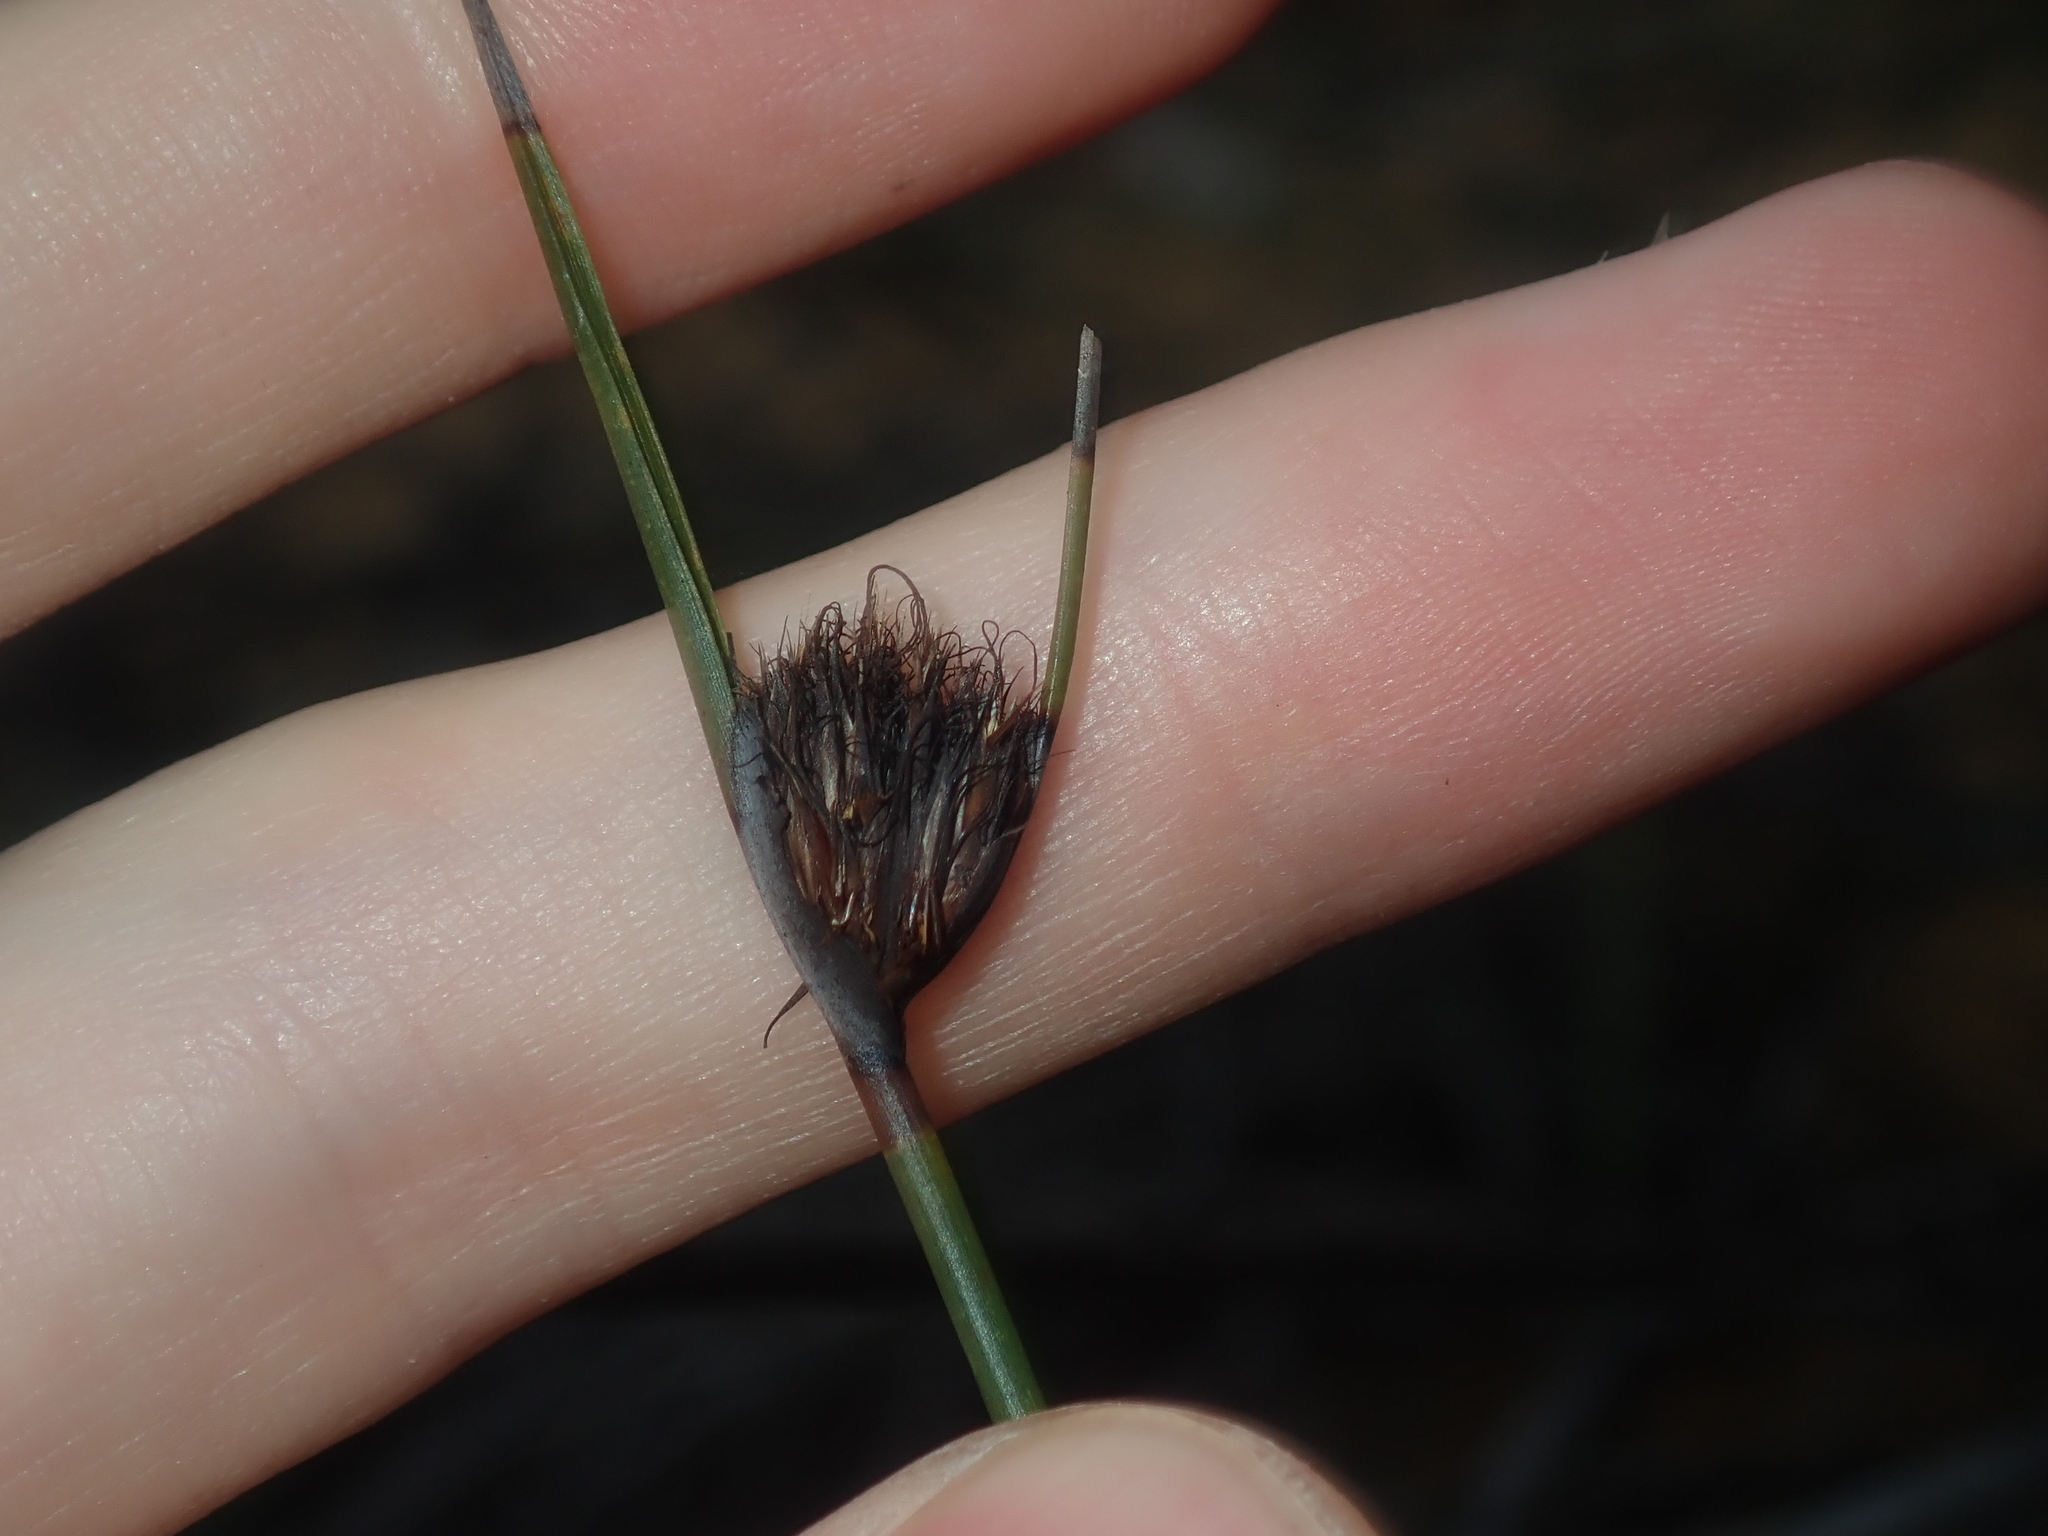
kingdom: Plantae
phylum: Tracheophyta
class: Liliopsida
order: Poales
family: Cyperaceae
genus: Mesomelaena
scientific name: Mesomelaena pseudostygia
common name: Semaphore sedge
